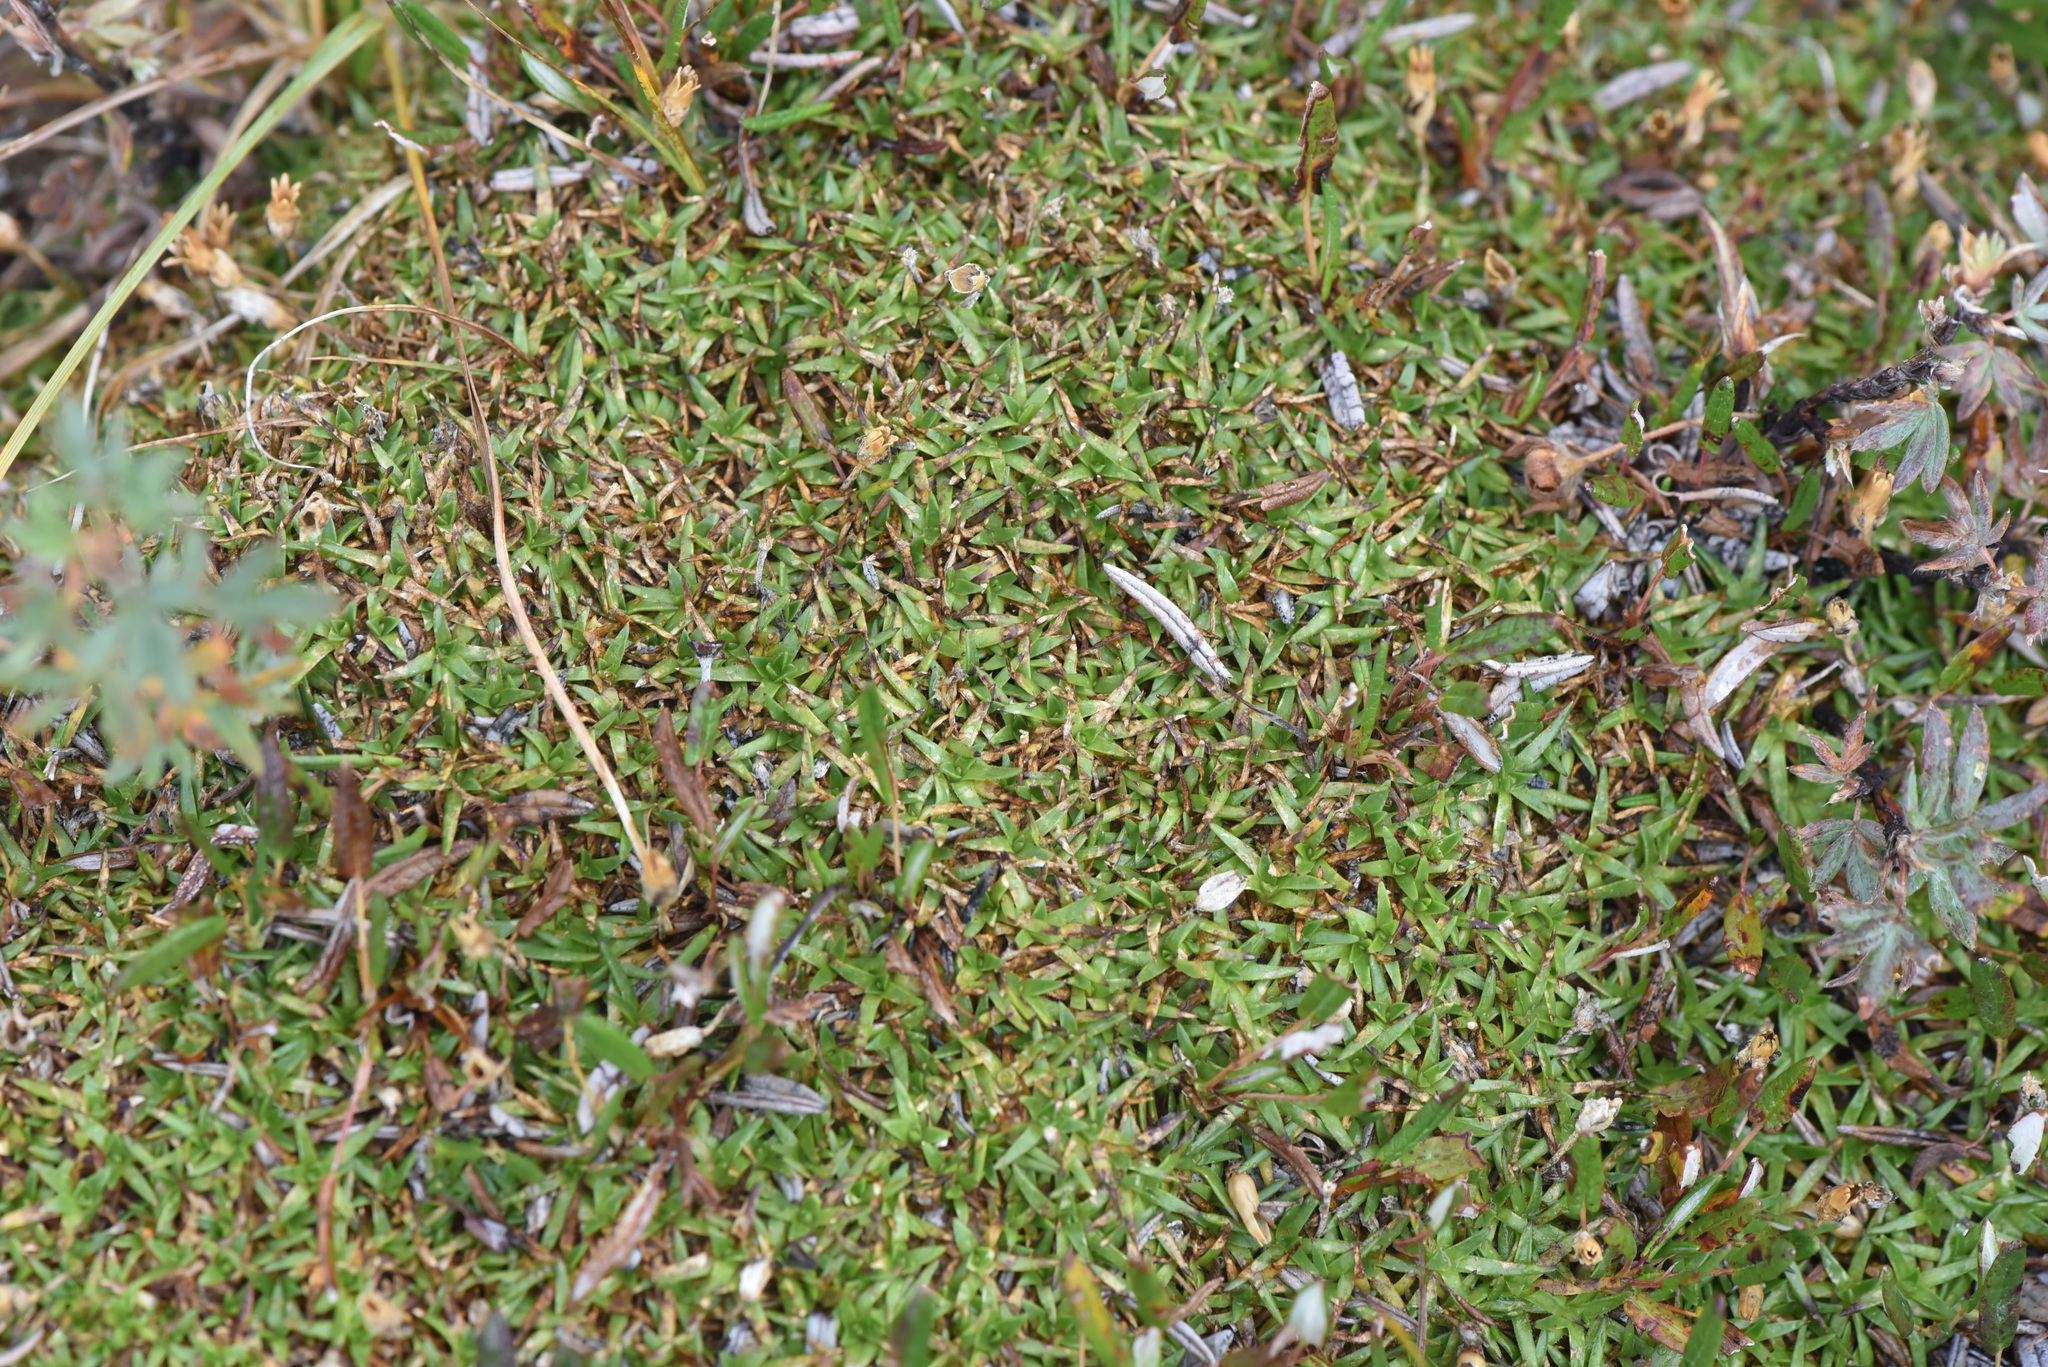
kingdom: Plantae
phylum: Tracheophyta
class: Magnoliopsida
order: Caryophyllales
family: Caryophyllaceae
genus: Silene
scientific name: Silene acaulis
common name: Moss campion
